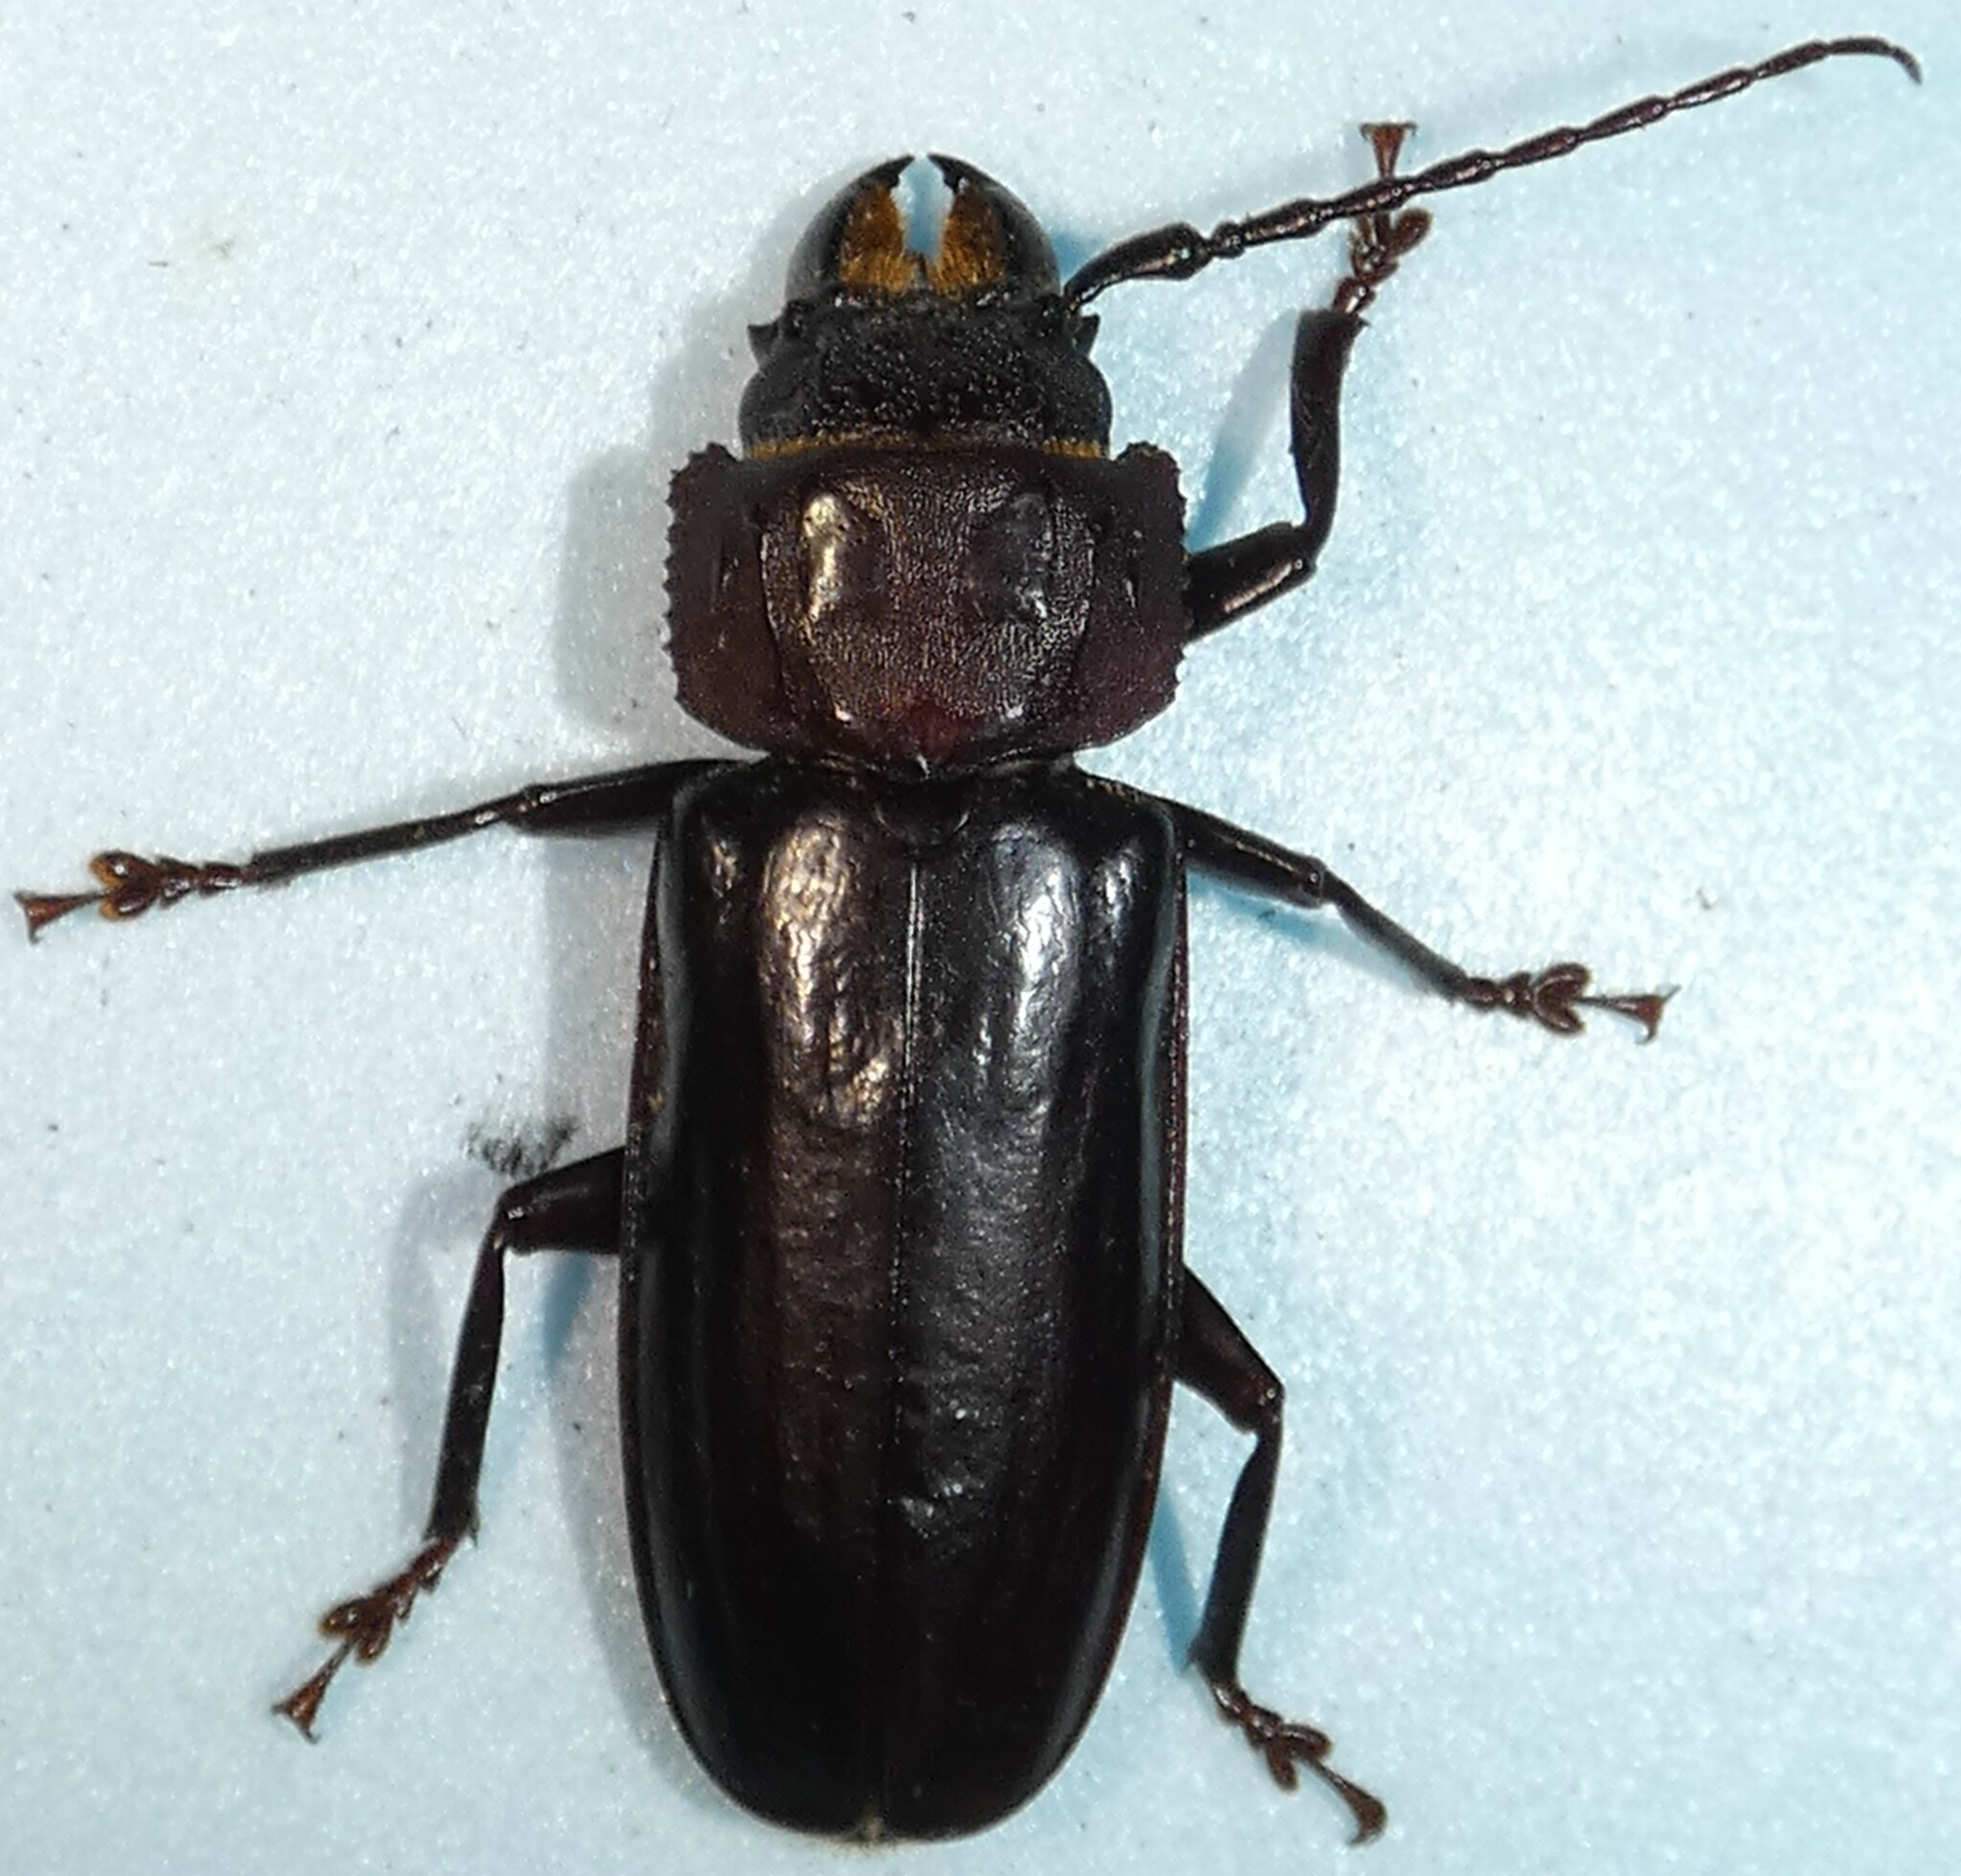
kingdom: Animalia
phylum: Arthropoda
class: Insecta
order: Coleoptera
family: Cerambycidae
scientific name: Cerambycidae
